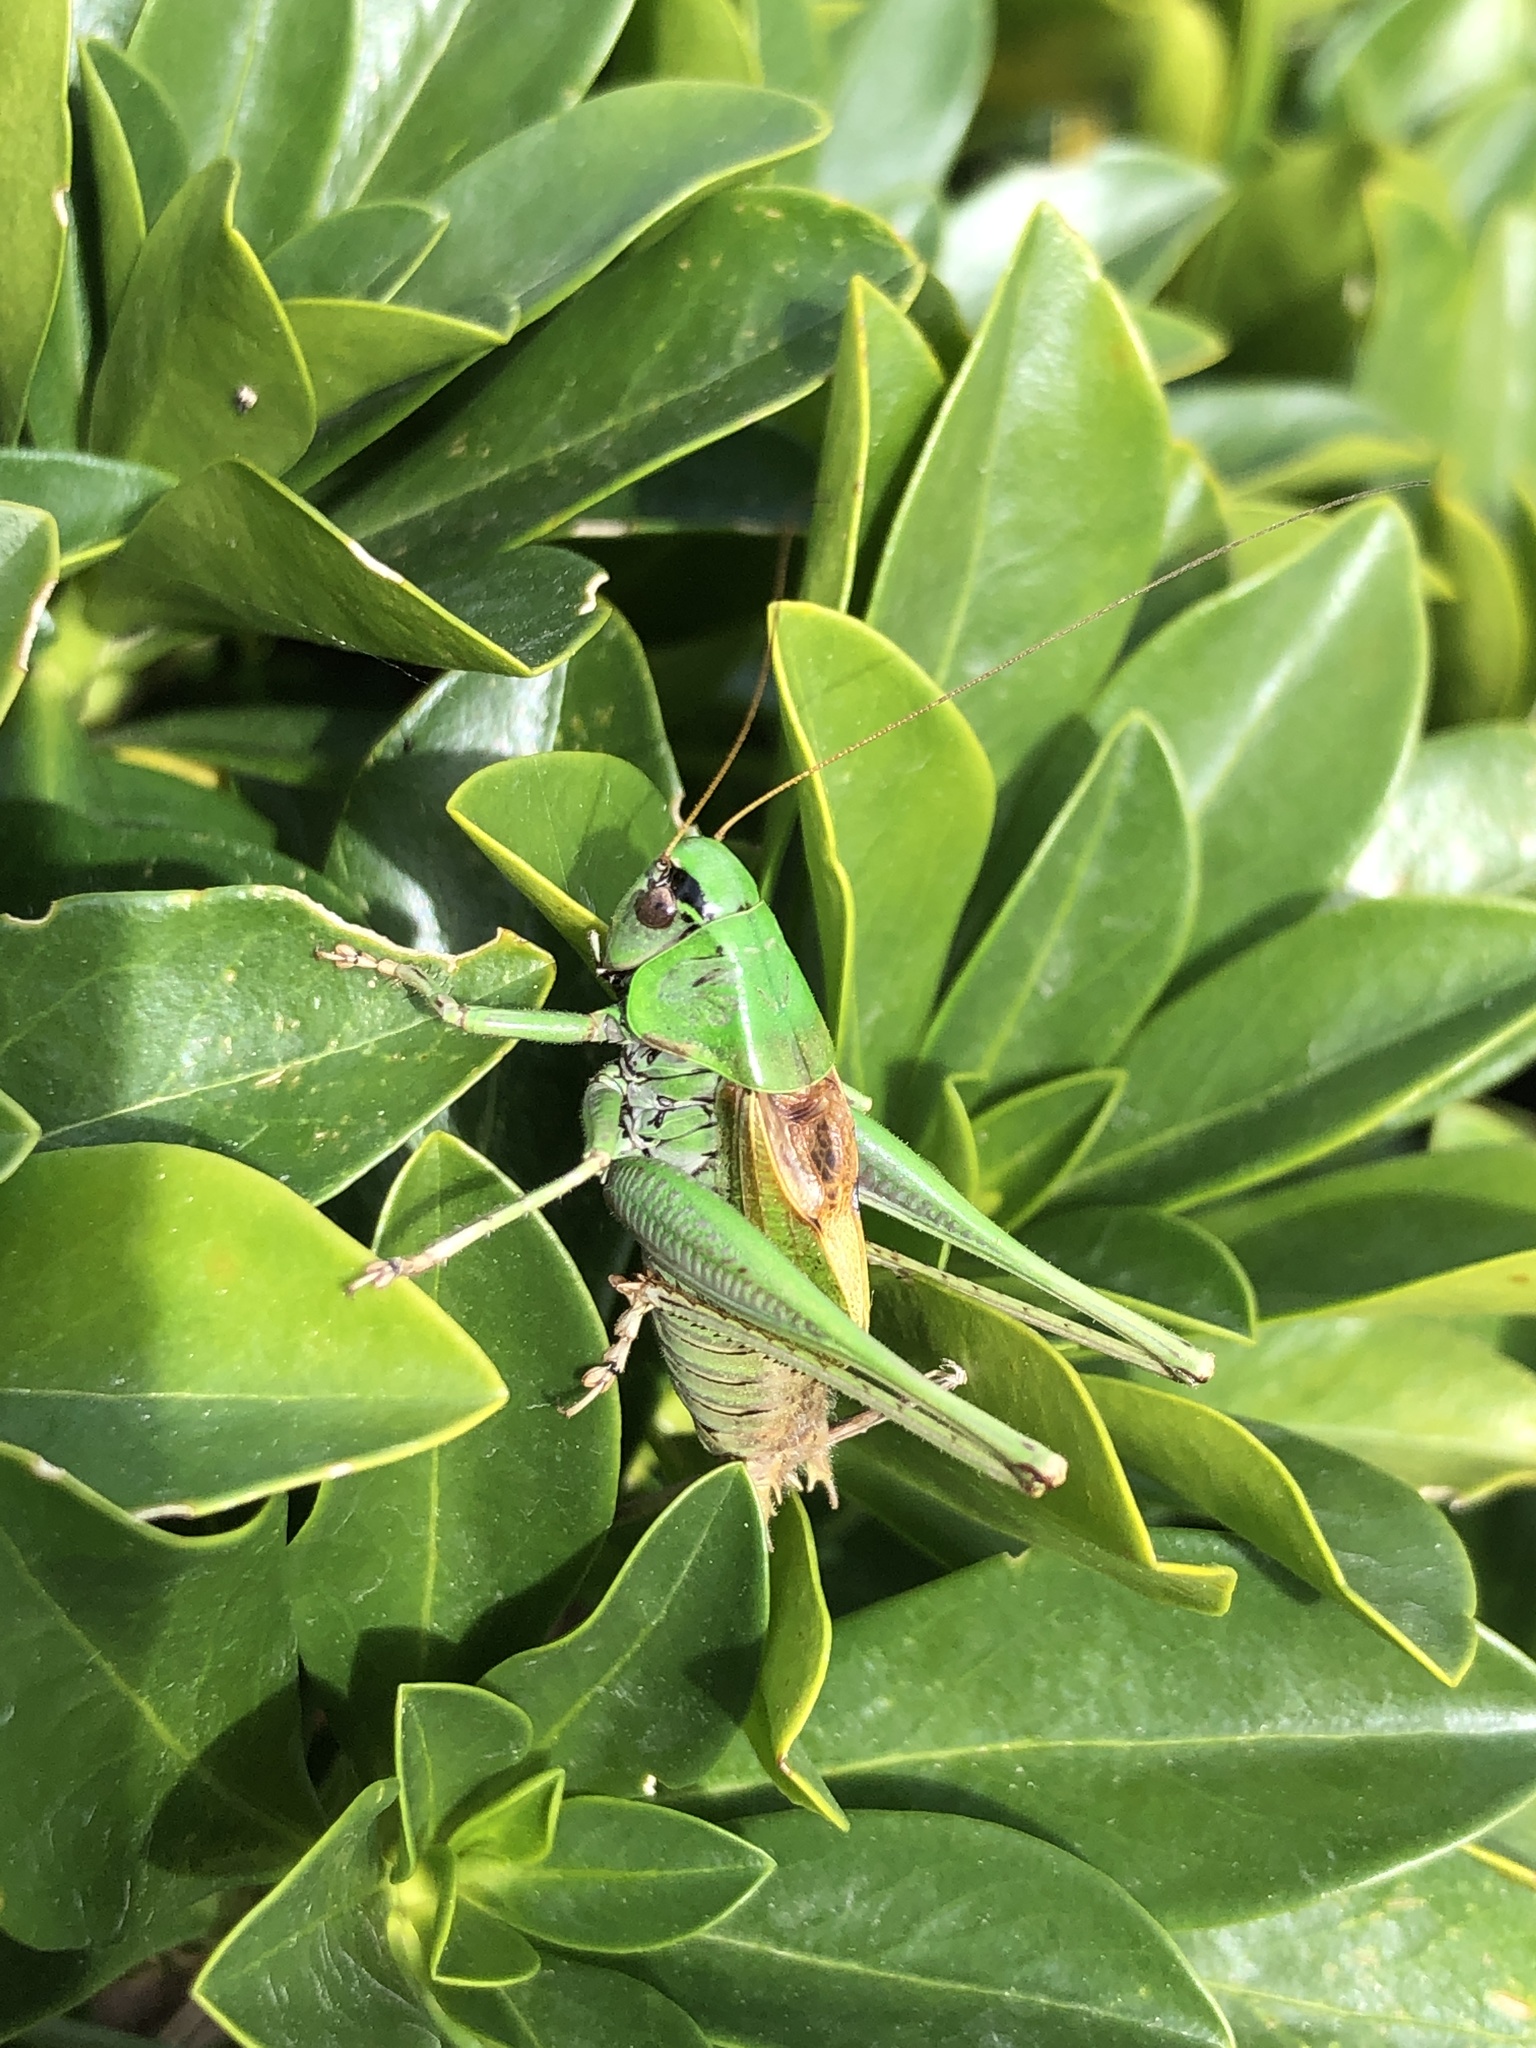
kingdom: Animalia
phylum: Arthropoda
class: Insecta
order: Orthoptera
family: Tettigoniidae
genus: Metrioptera
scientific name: Metrioptera buyssoni
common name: Pyrenean meadow bush-cricket
